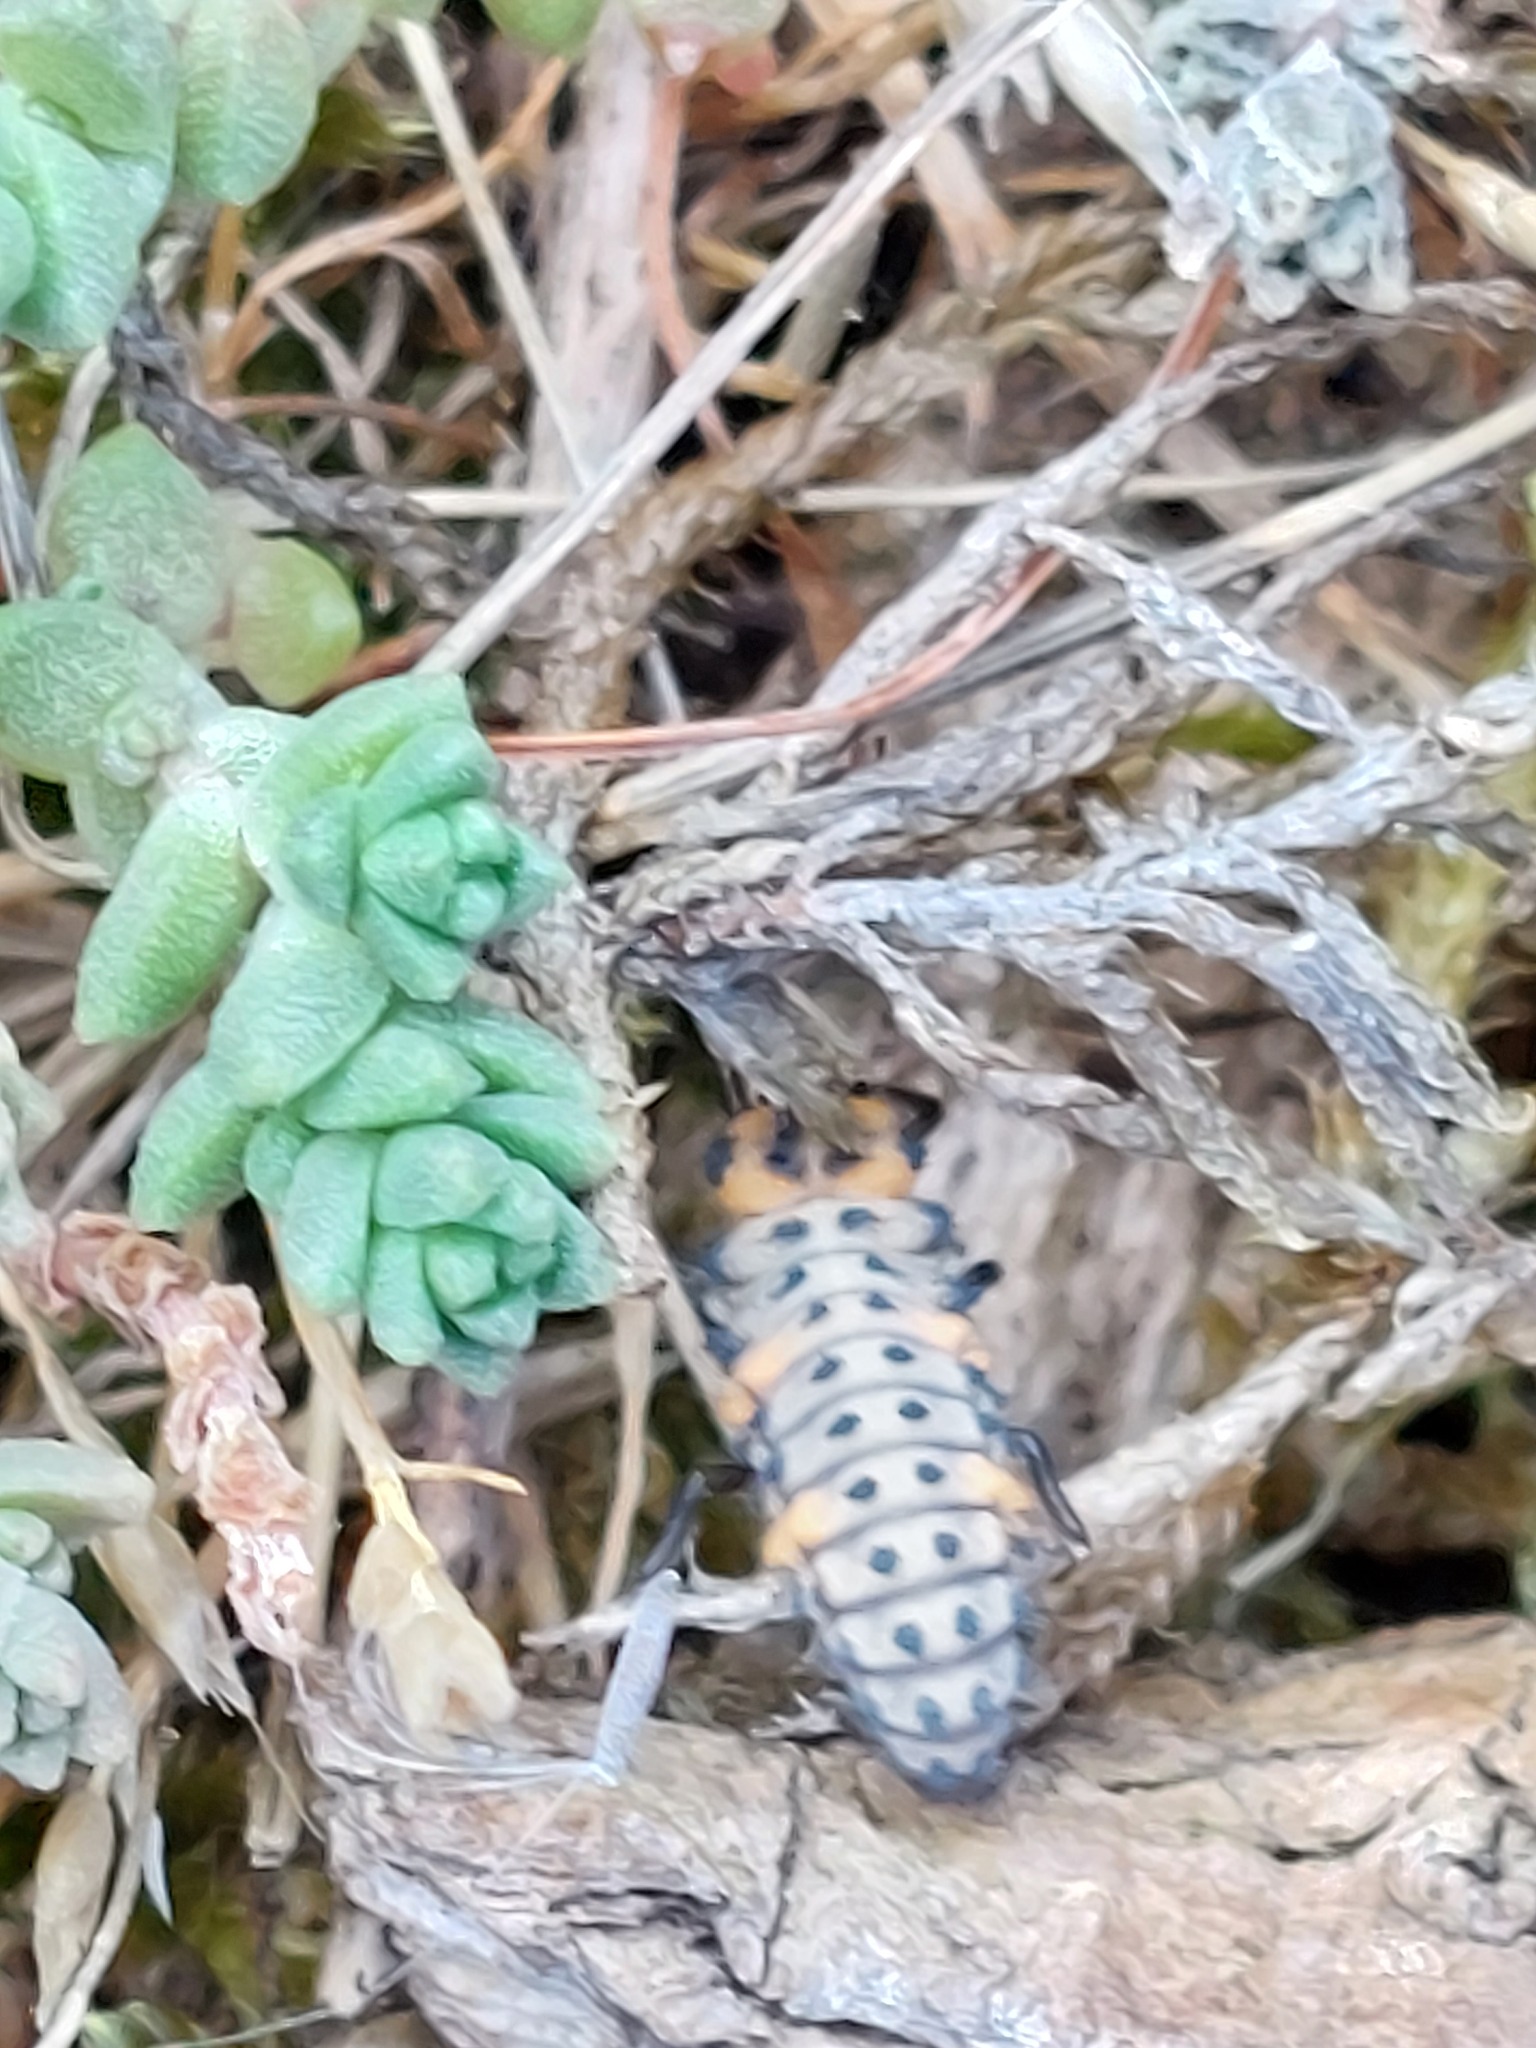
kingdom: Animalia
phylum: Arthropoda
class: Insecta
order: Coleoptera
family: Coccinellidae
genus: Coccinella
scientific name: Coccinella septempunctata
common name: Sevenspotted lady beetle
